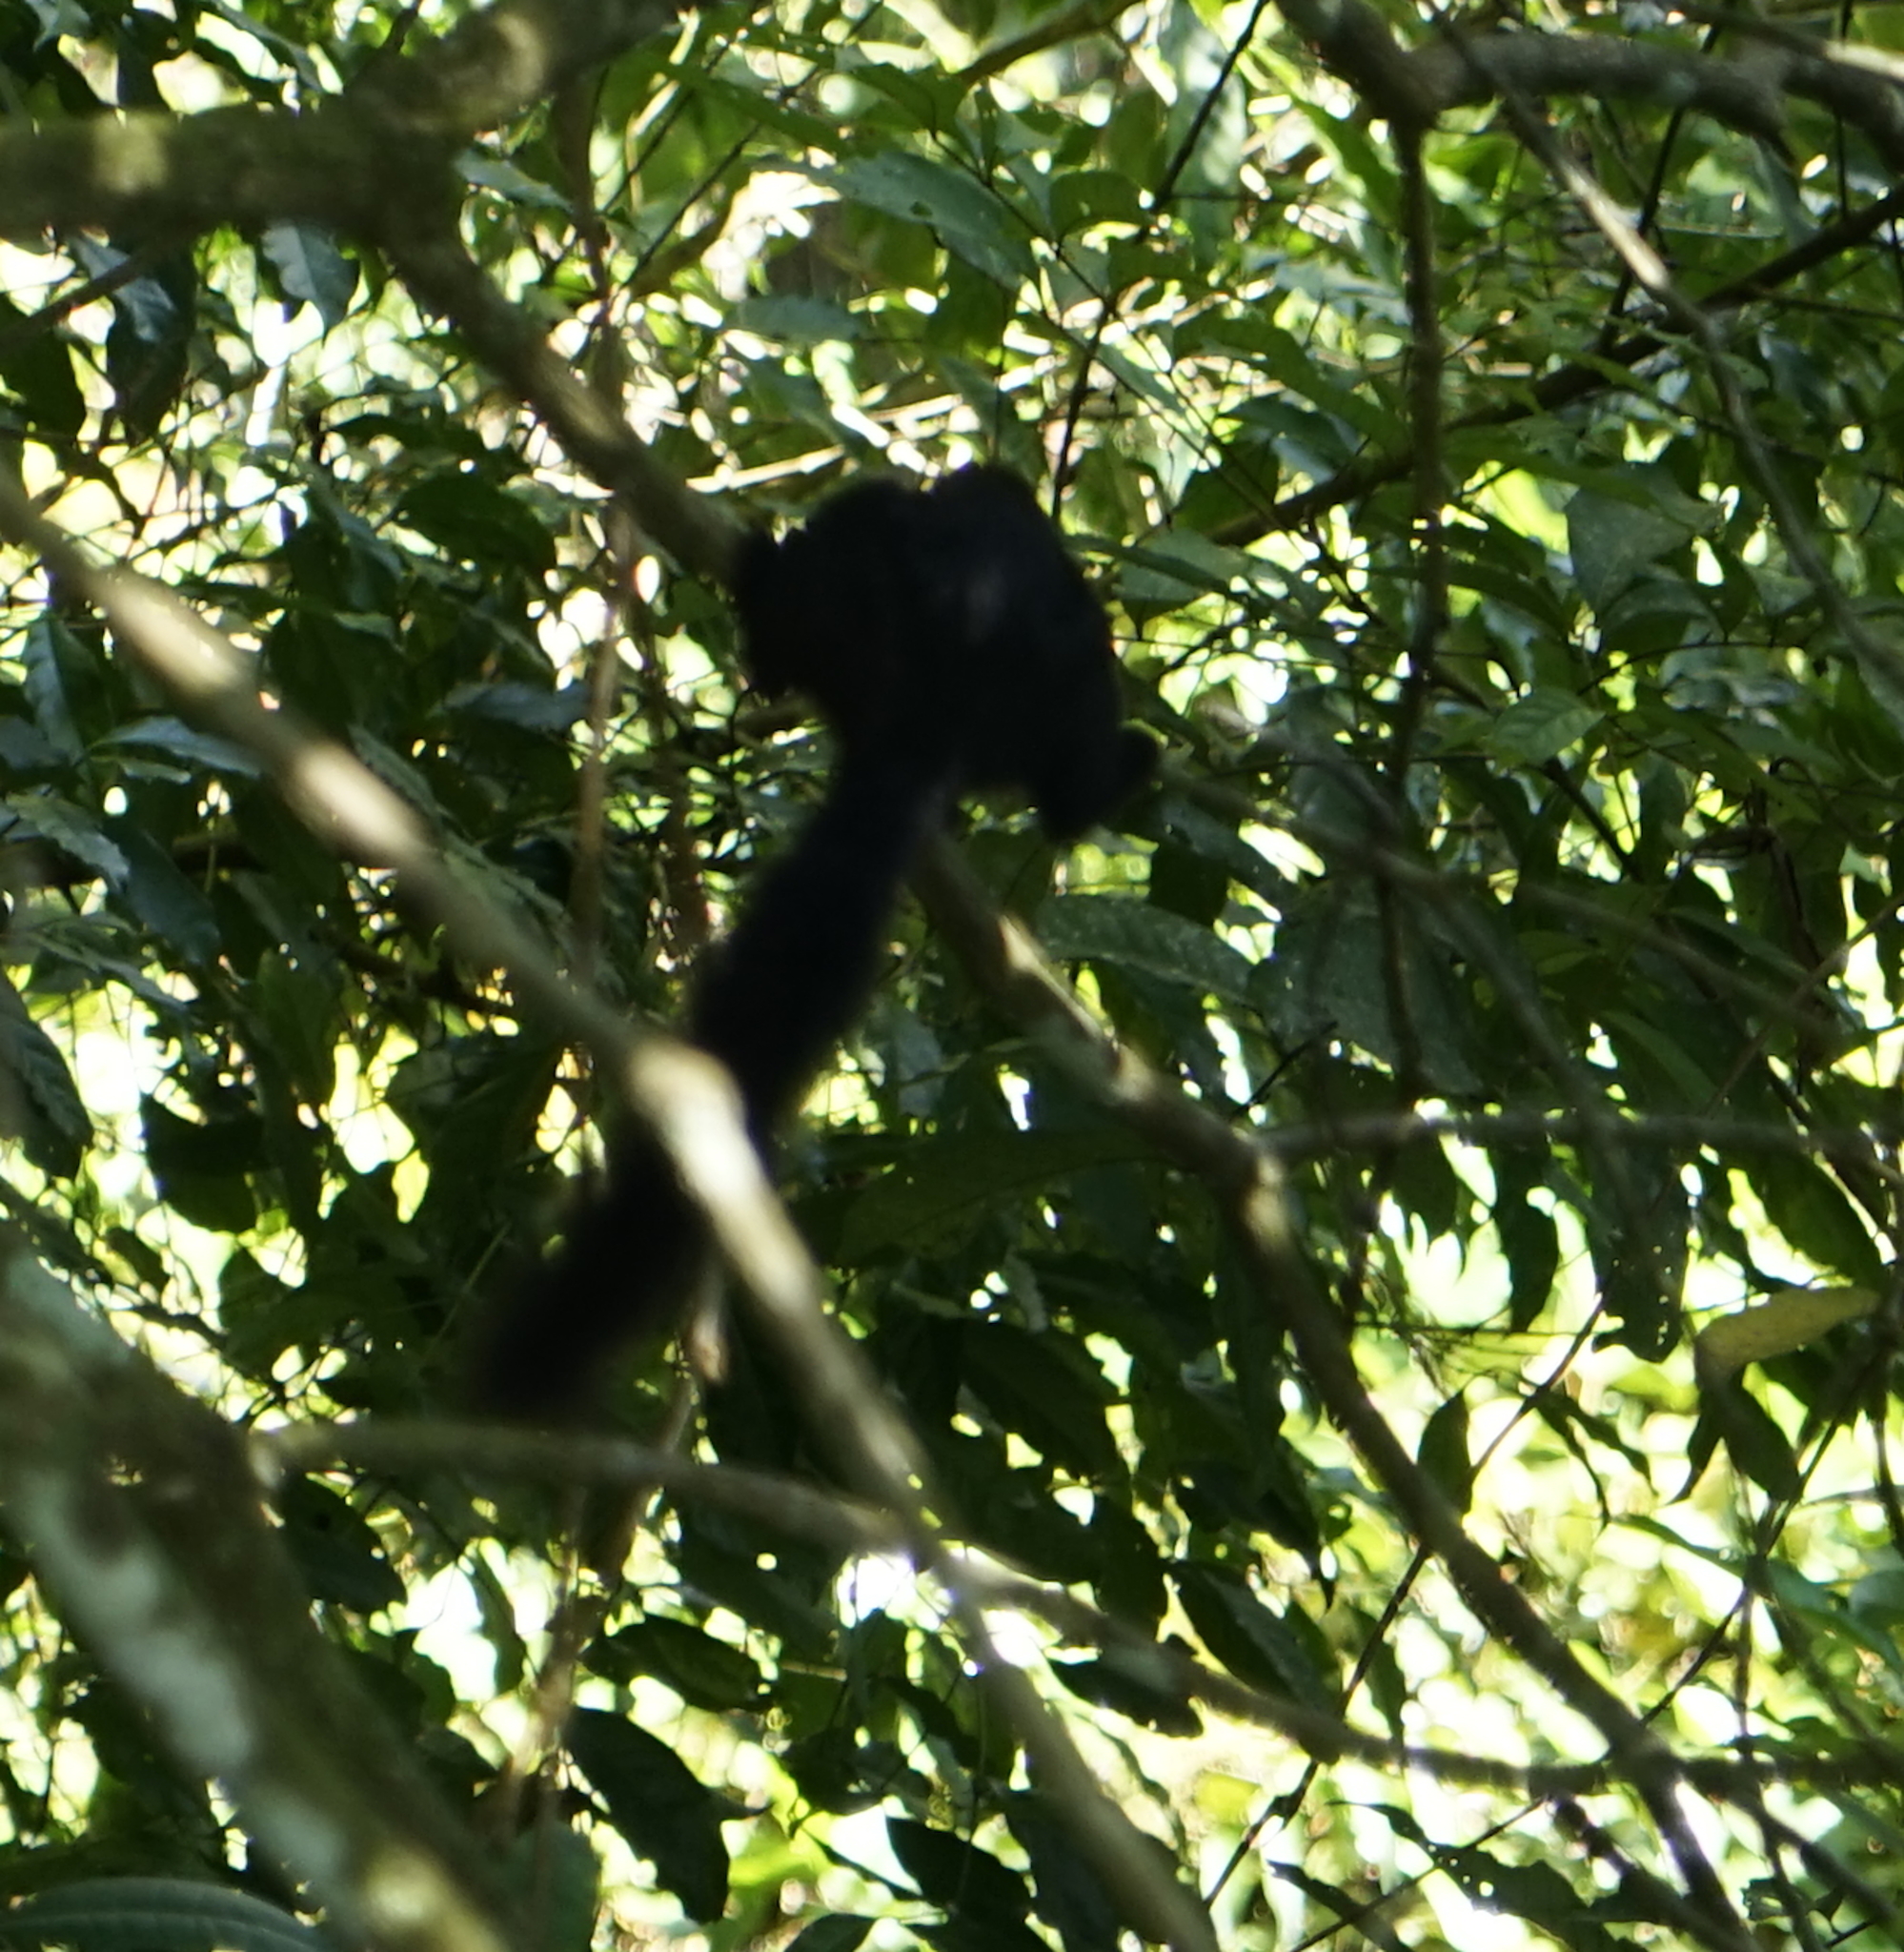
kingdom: Animalia
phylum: Chordata
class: Mammalia
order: Rodentia
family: Sciuridae
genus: Callosciurus
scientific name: Callosciurus prevostii
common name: Prevost's squirrel
